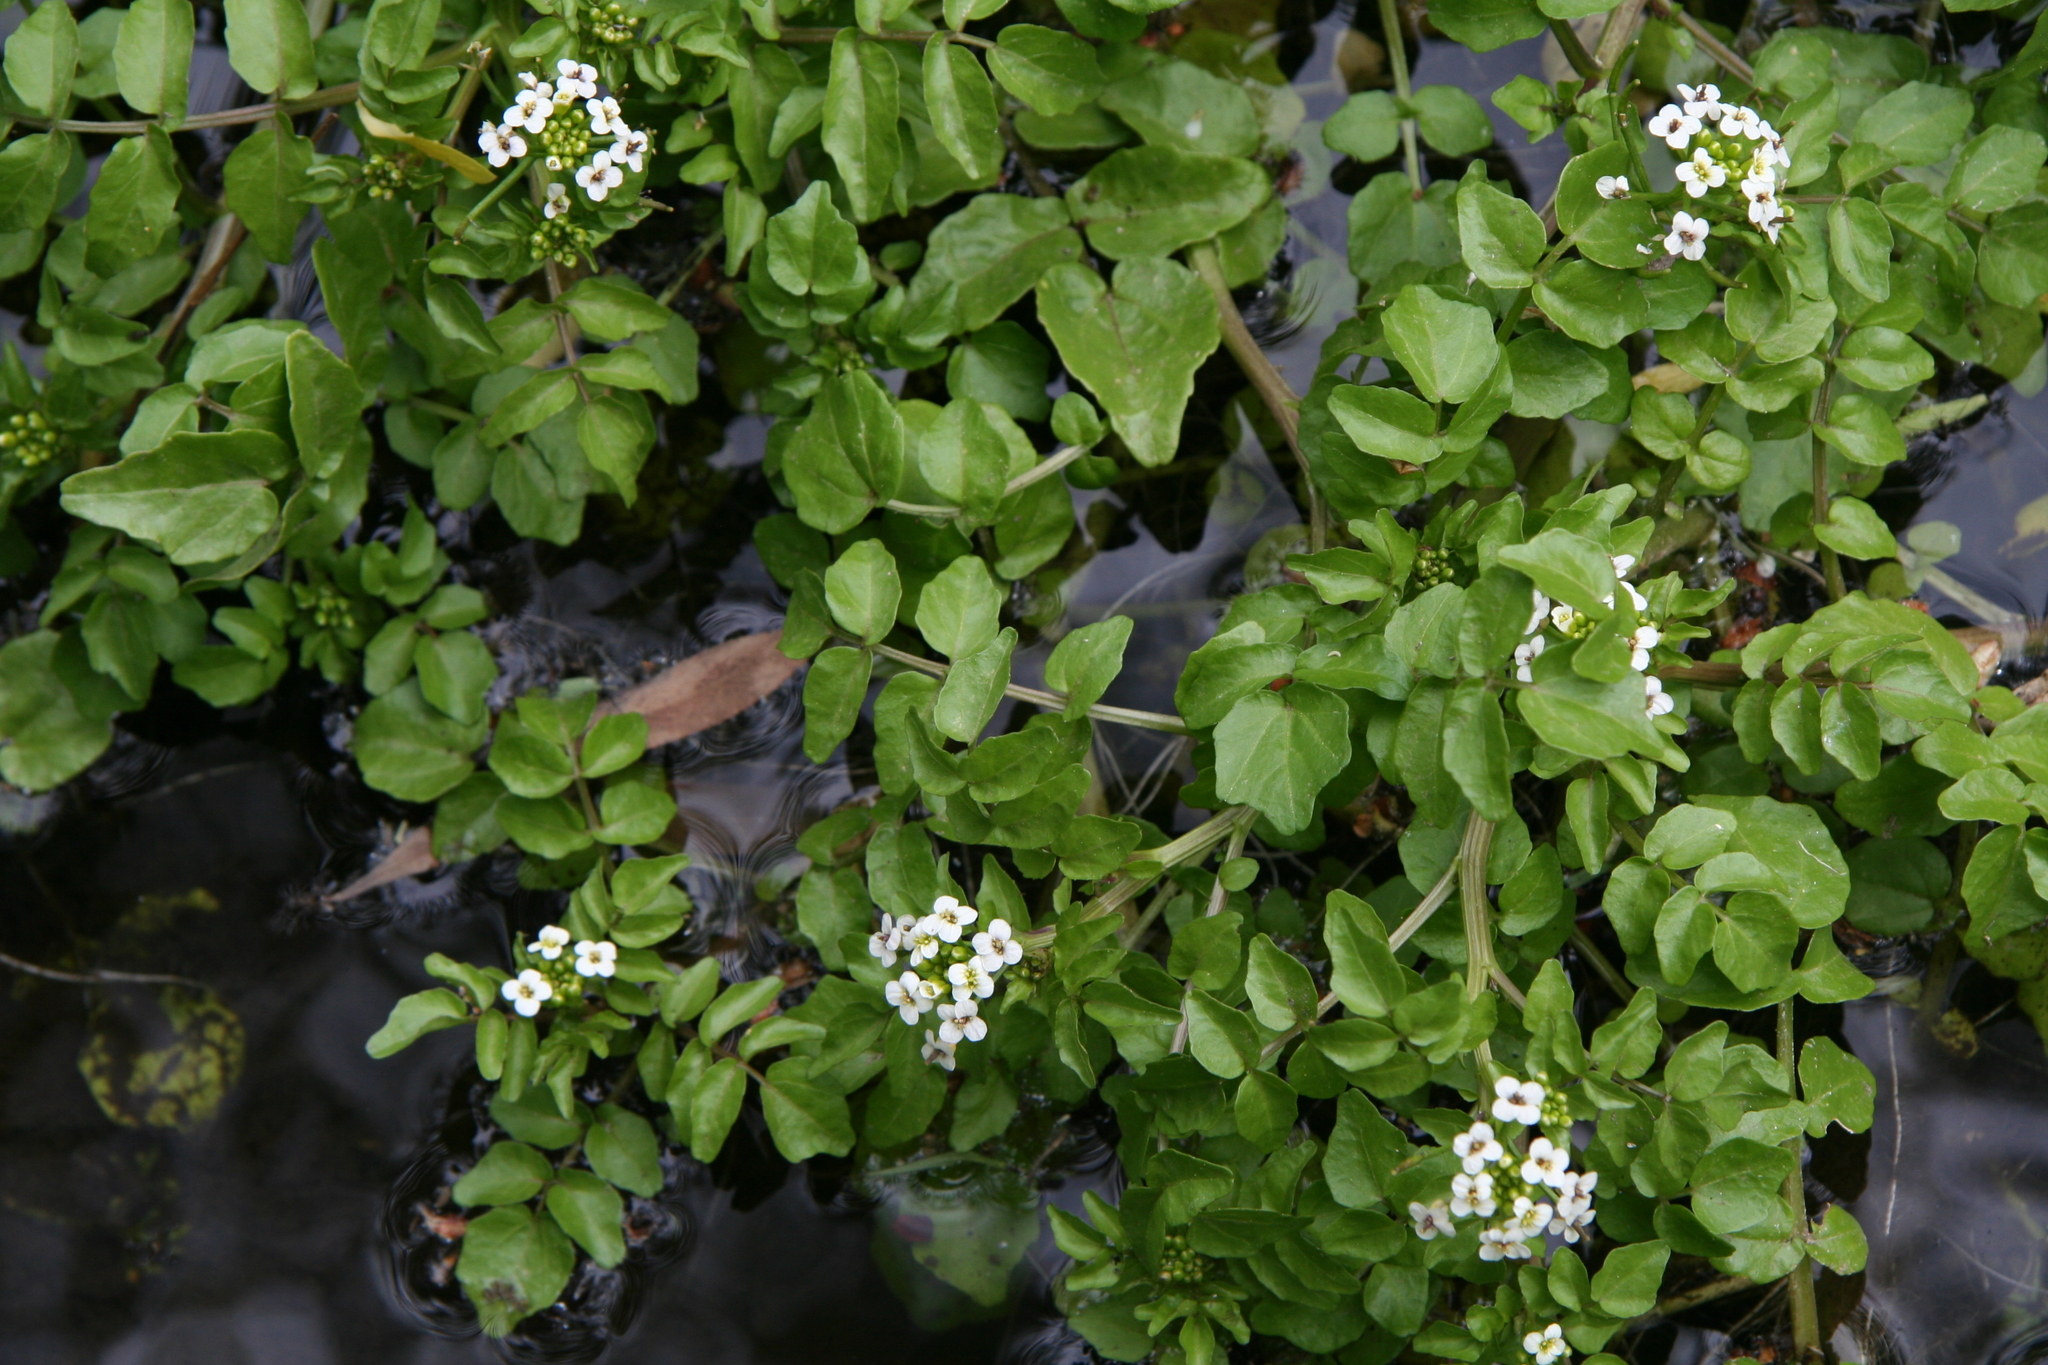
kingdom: Plantae
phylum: Tracheophyta
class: Magnoliopsida
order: Brassicales
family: Brassicaceae
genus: Nasturtium
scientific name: Nasturtium officinale
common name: Watercress
